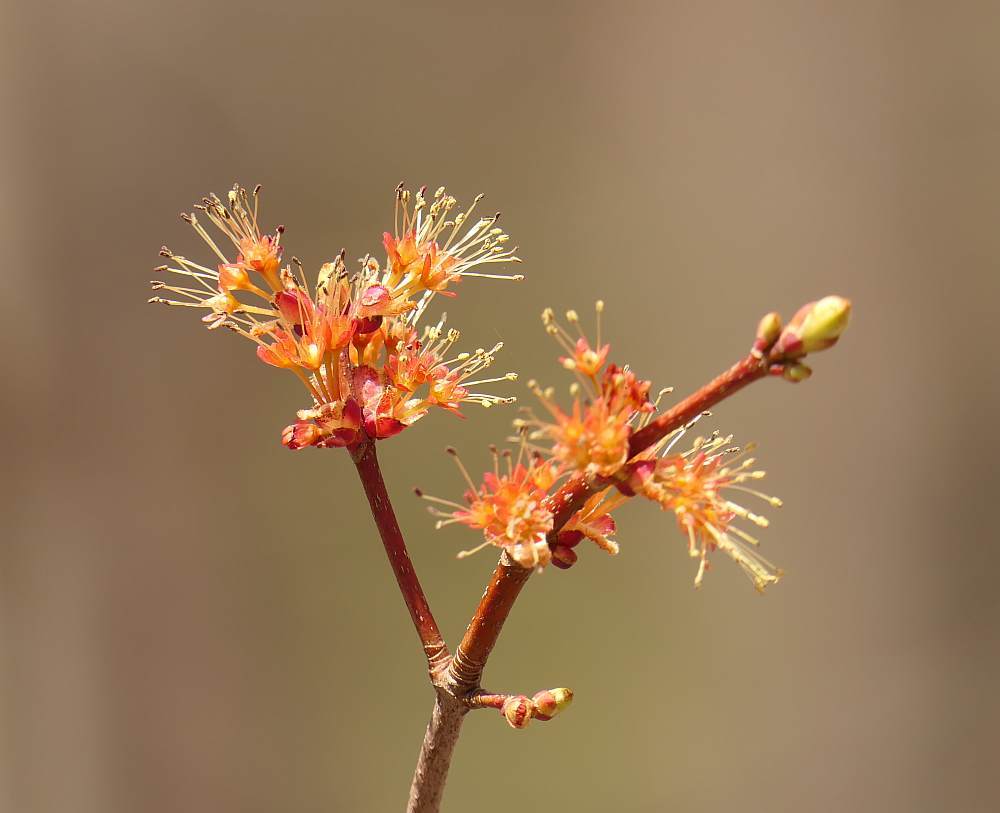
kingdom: Plantae
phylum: Tracheophyta
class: Magnoliopsida
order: Sapindales
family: Sapindaceae
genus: Acer
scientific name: Acer rubrum
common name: Red maple
